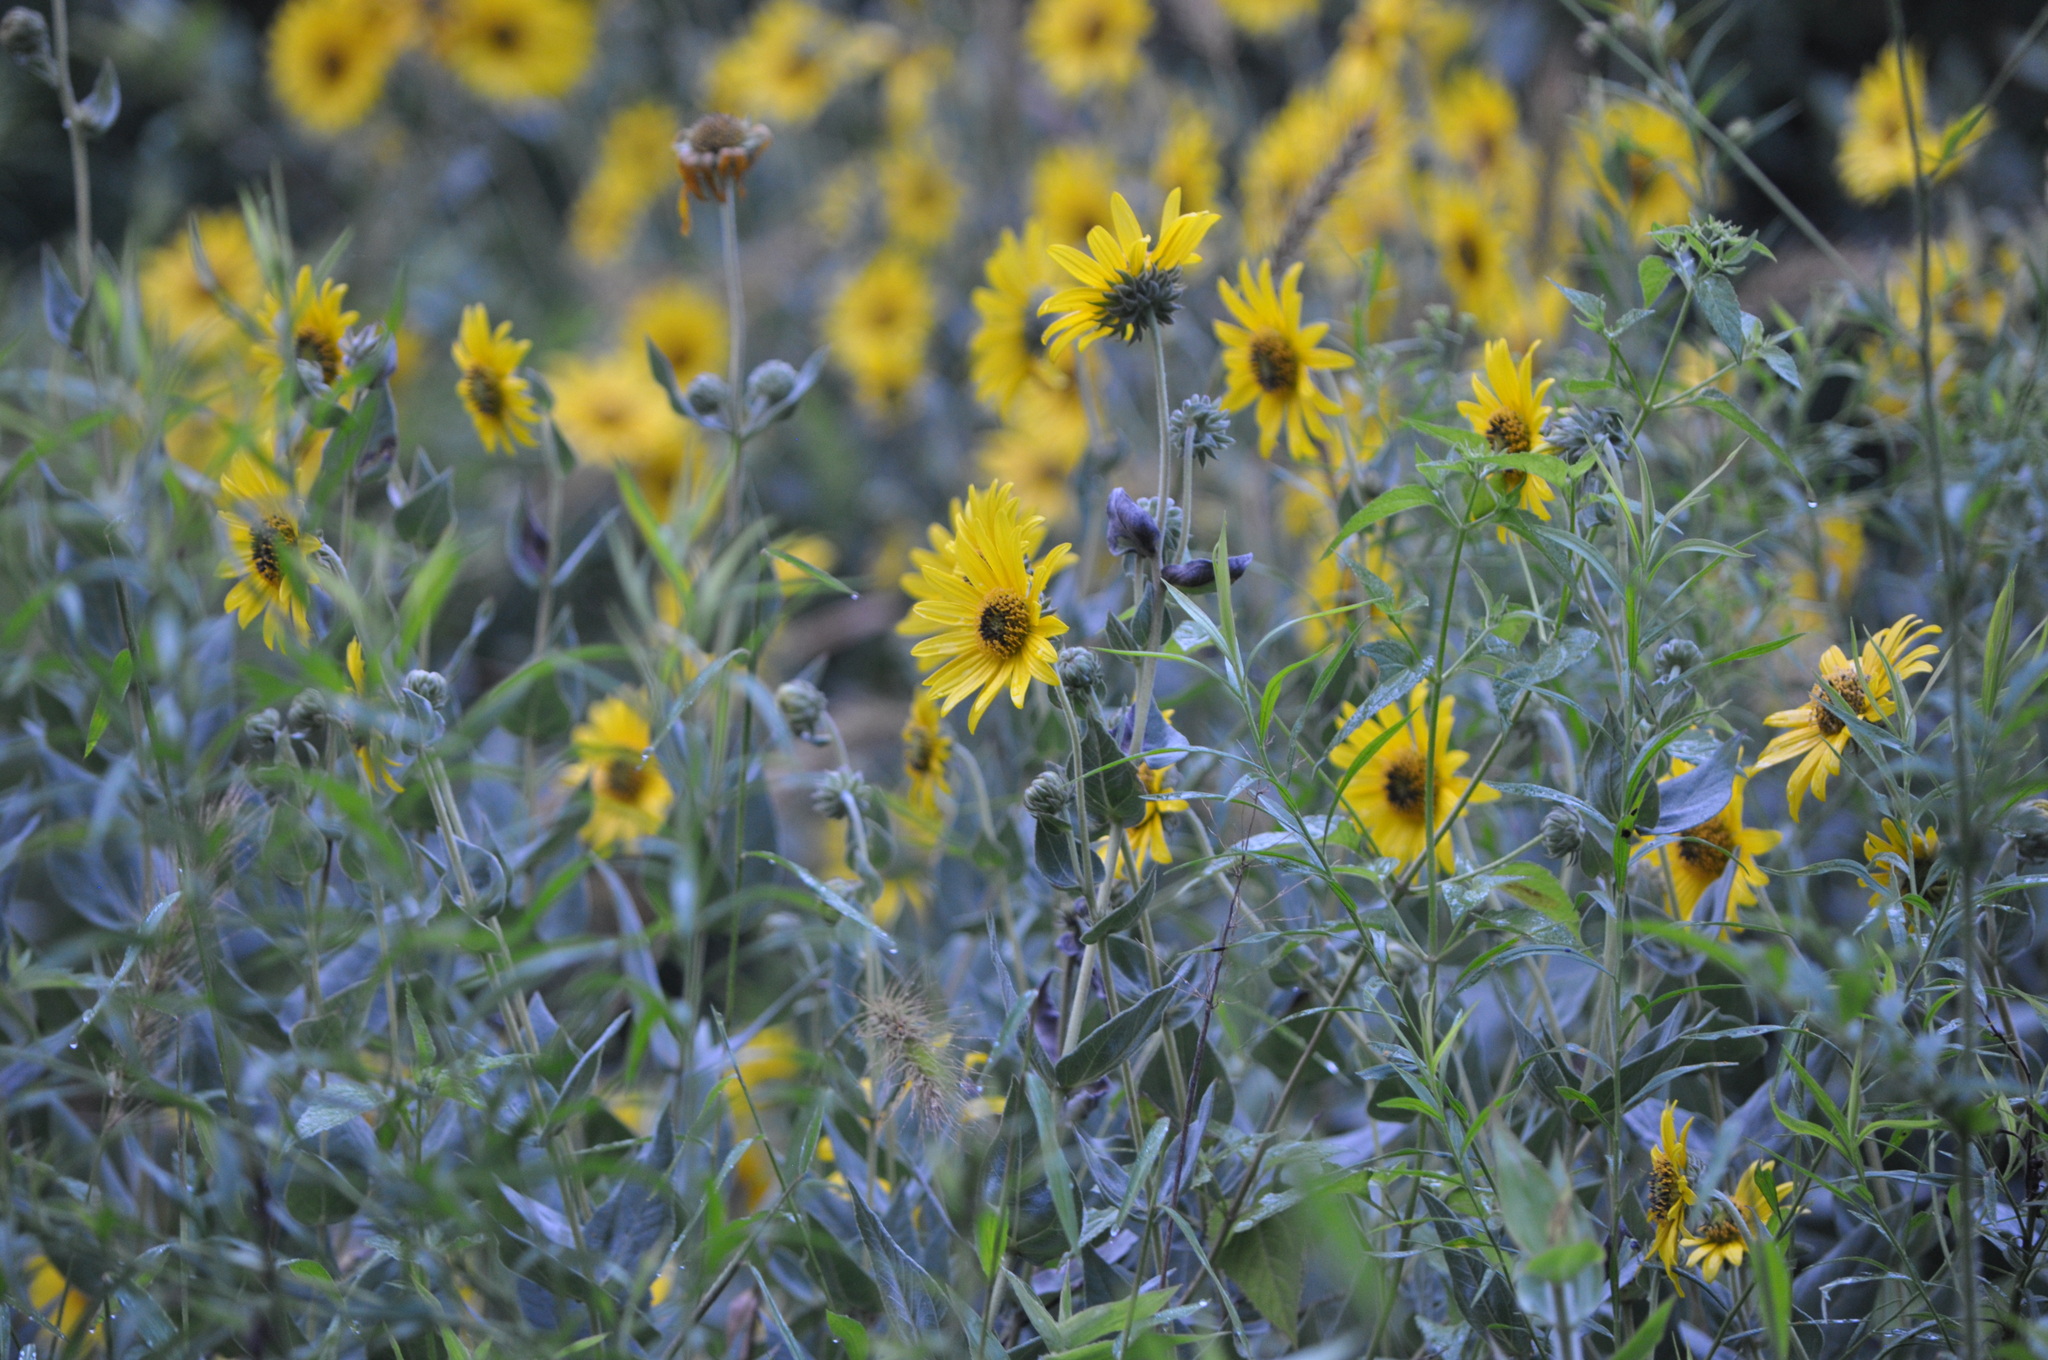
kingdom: Plantae
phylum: Tracheophyta
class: Magnoliopsida
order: Asterales
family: Asteraceae
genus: Helianthus
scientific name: Helianthus mollis
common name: Ashy sunflower
